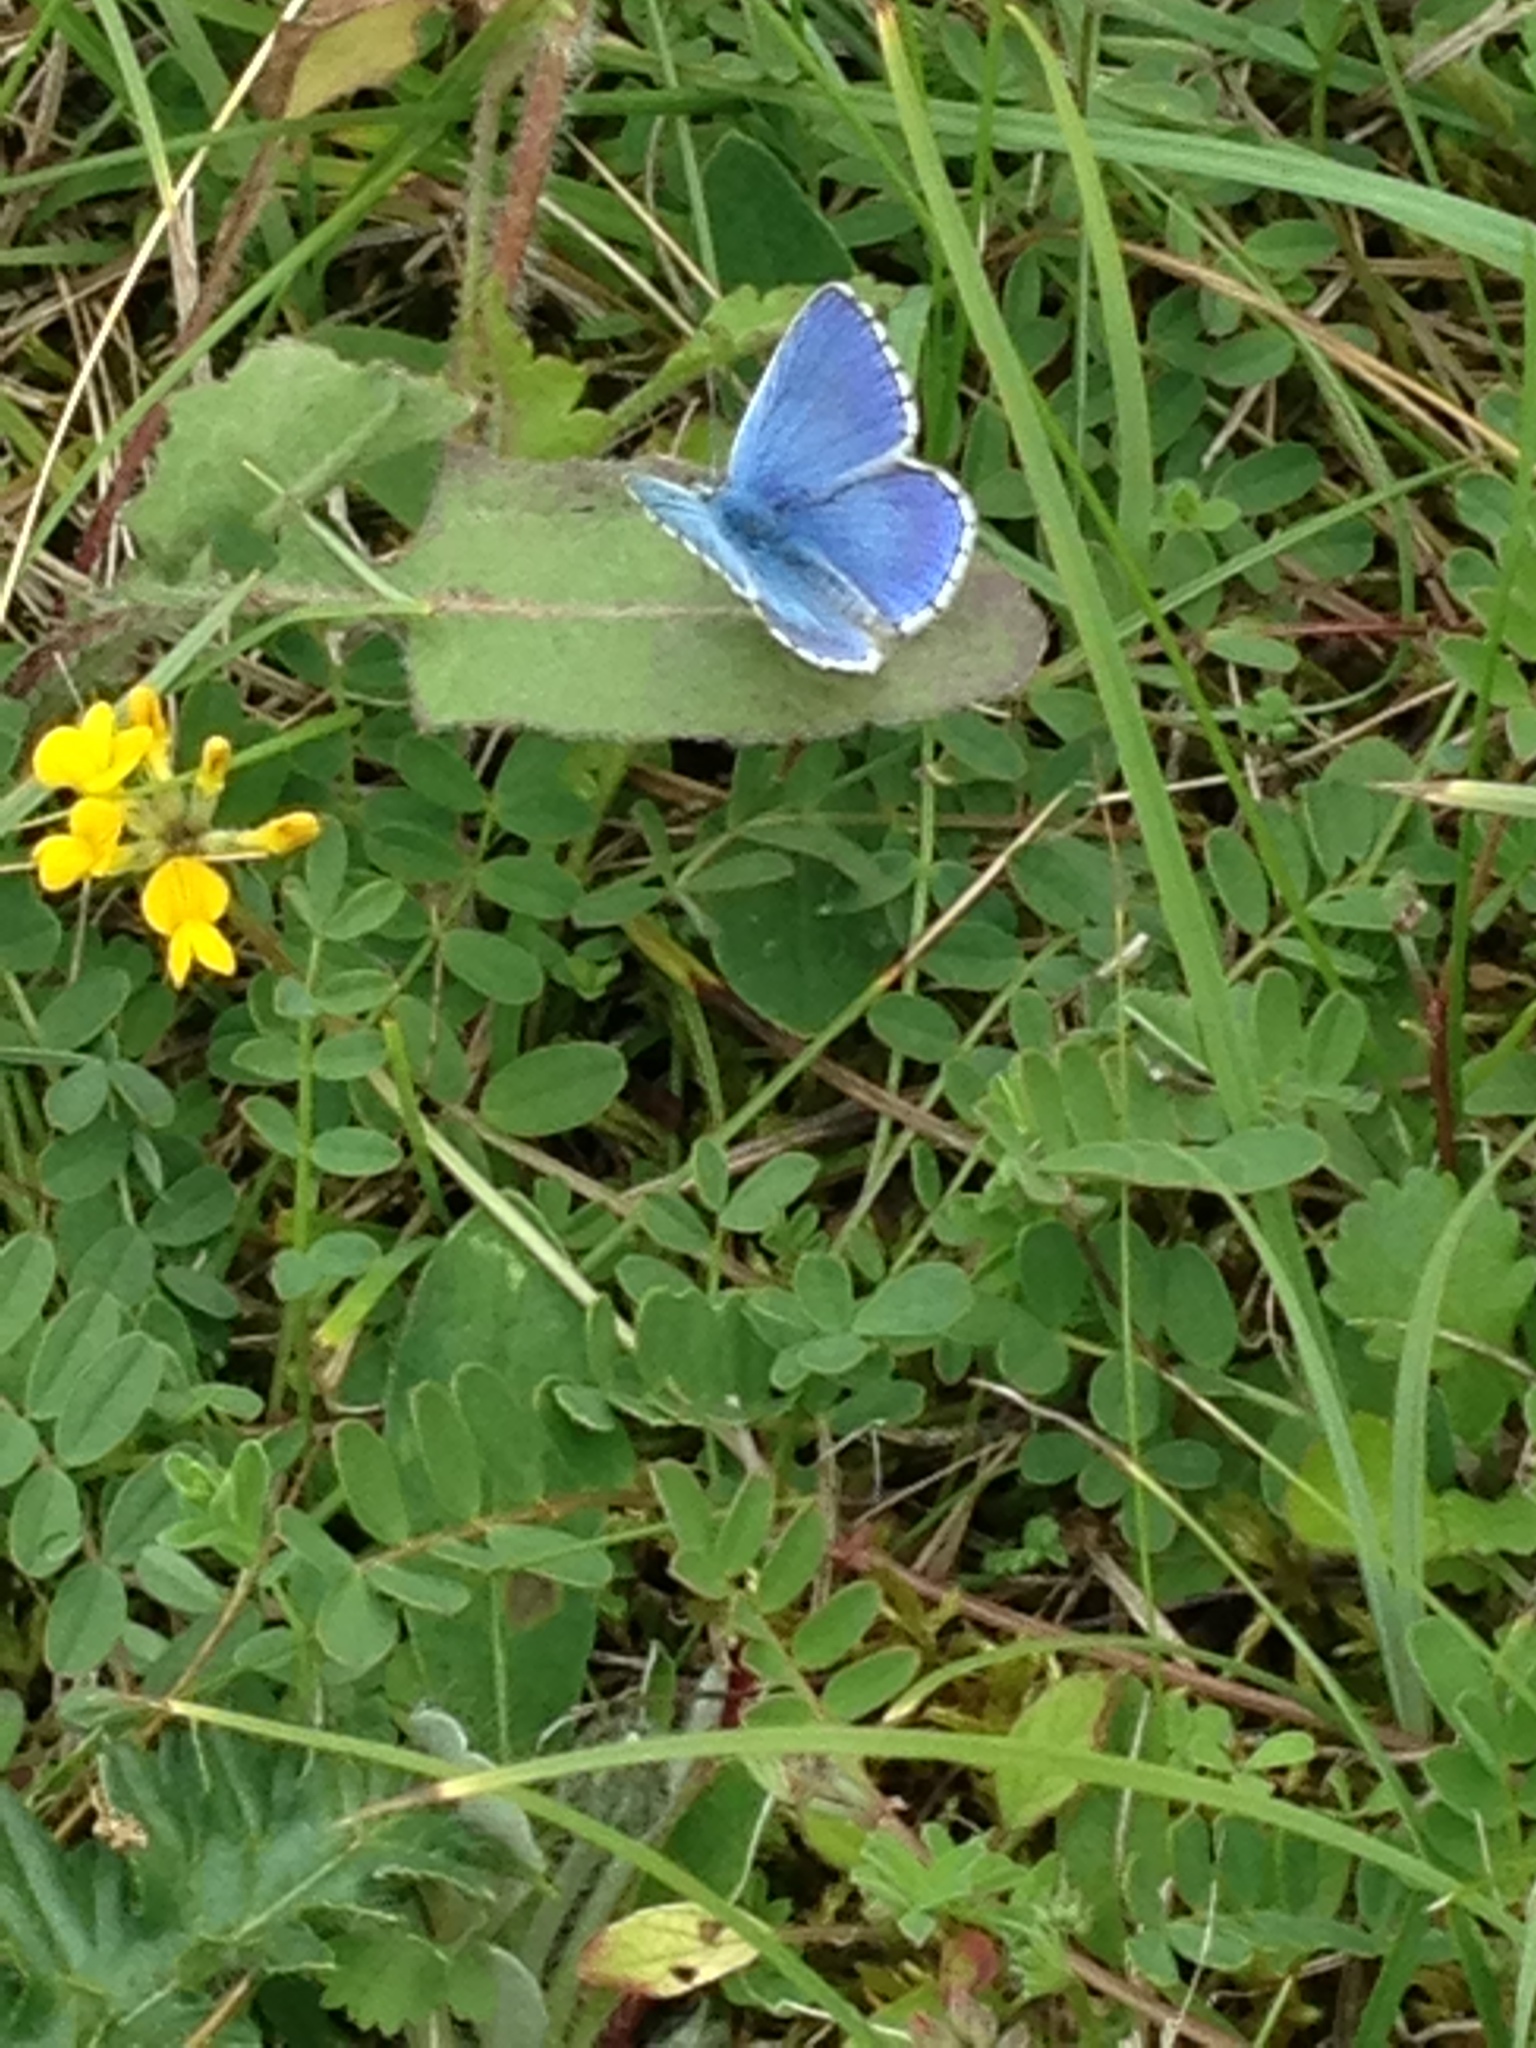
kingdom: Animalia
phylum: Arthropoda
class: Insecta
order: Lepidoptera
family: Lycaenidae
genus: Lysandra
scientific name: Lysandra bellargus
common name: Adonis blue
